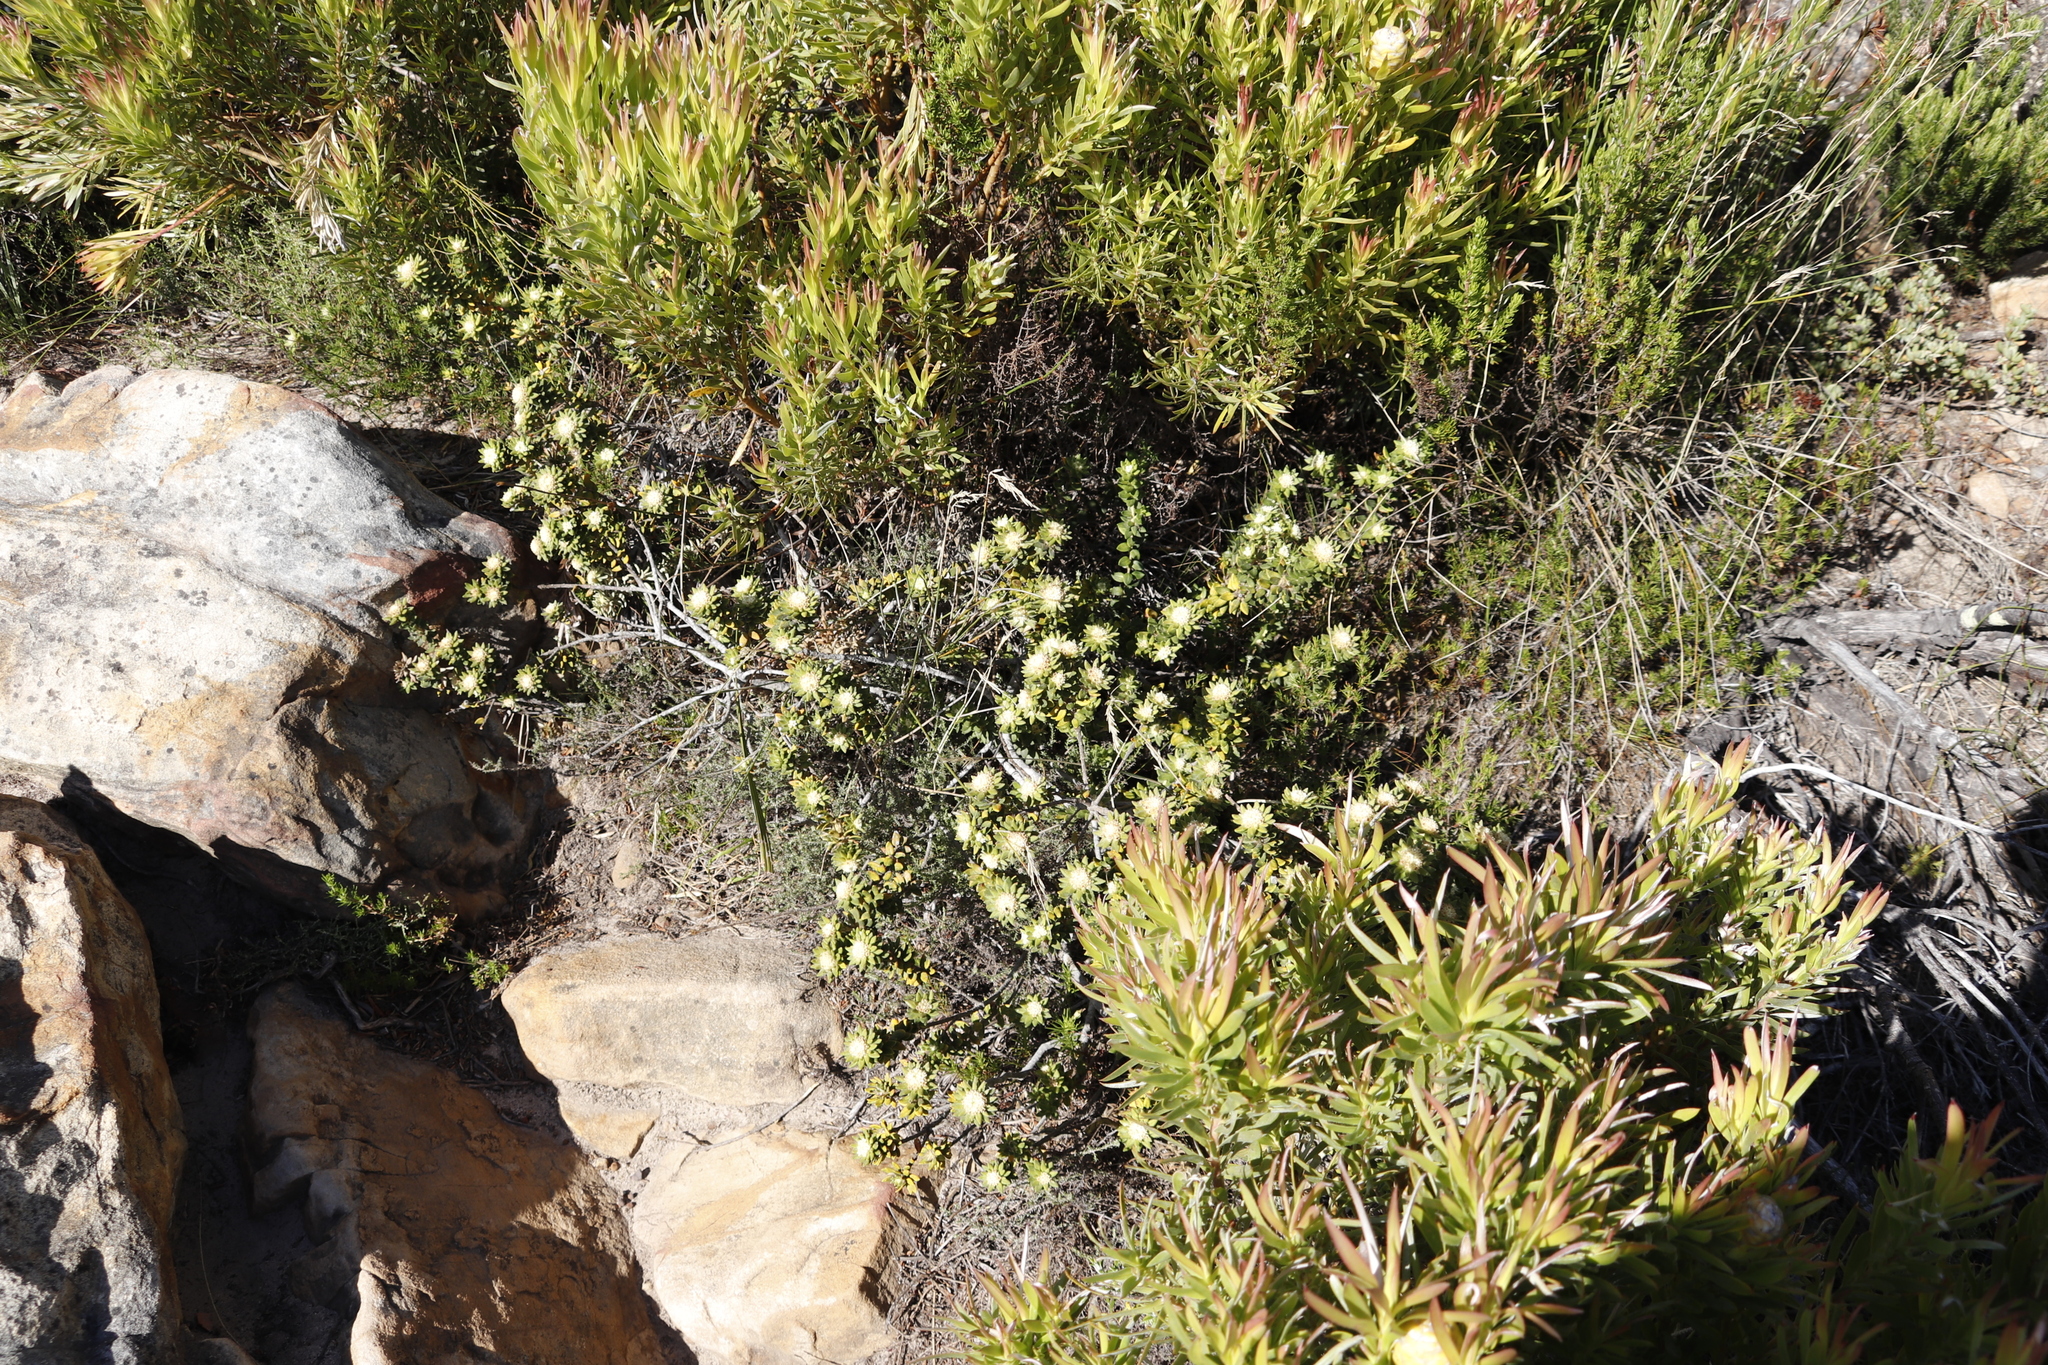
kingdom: Plantae
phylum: Tracheophyta
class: Magnoliopsida
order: Rosales
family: Rhamnaceae
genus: Phylica
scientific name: Phylica dioica
